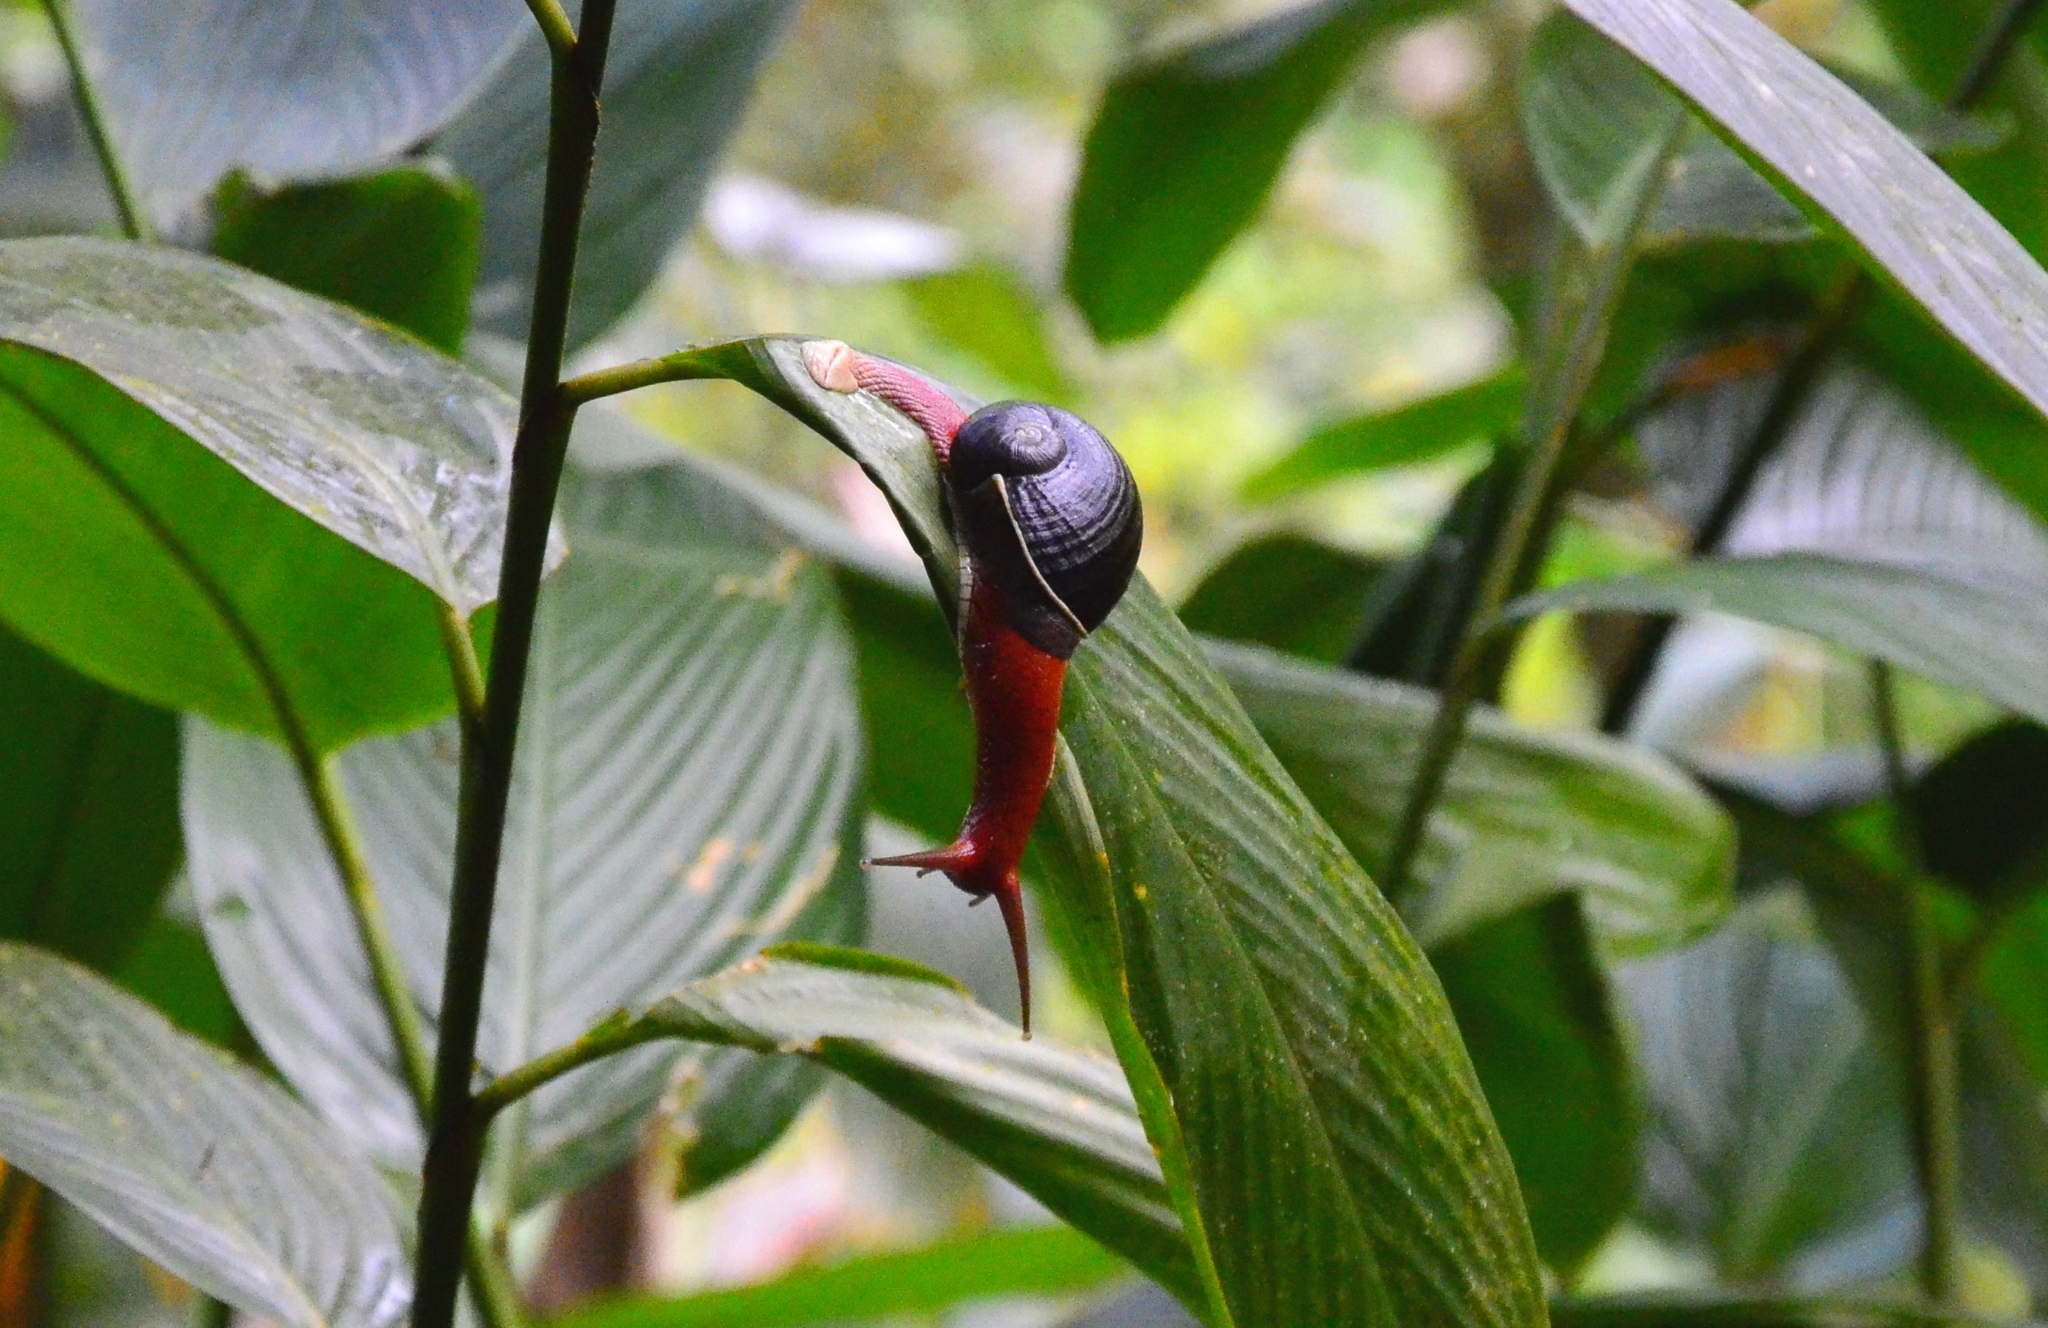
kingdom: Animalia
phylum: Mollusca
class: Gastropoda
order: Stylommatophora
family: Ariophantidae
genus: Indrella
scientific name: Indrella ampulla
